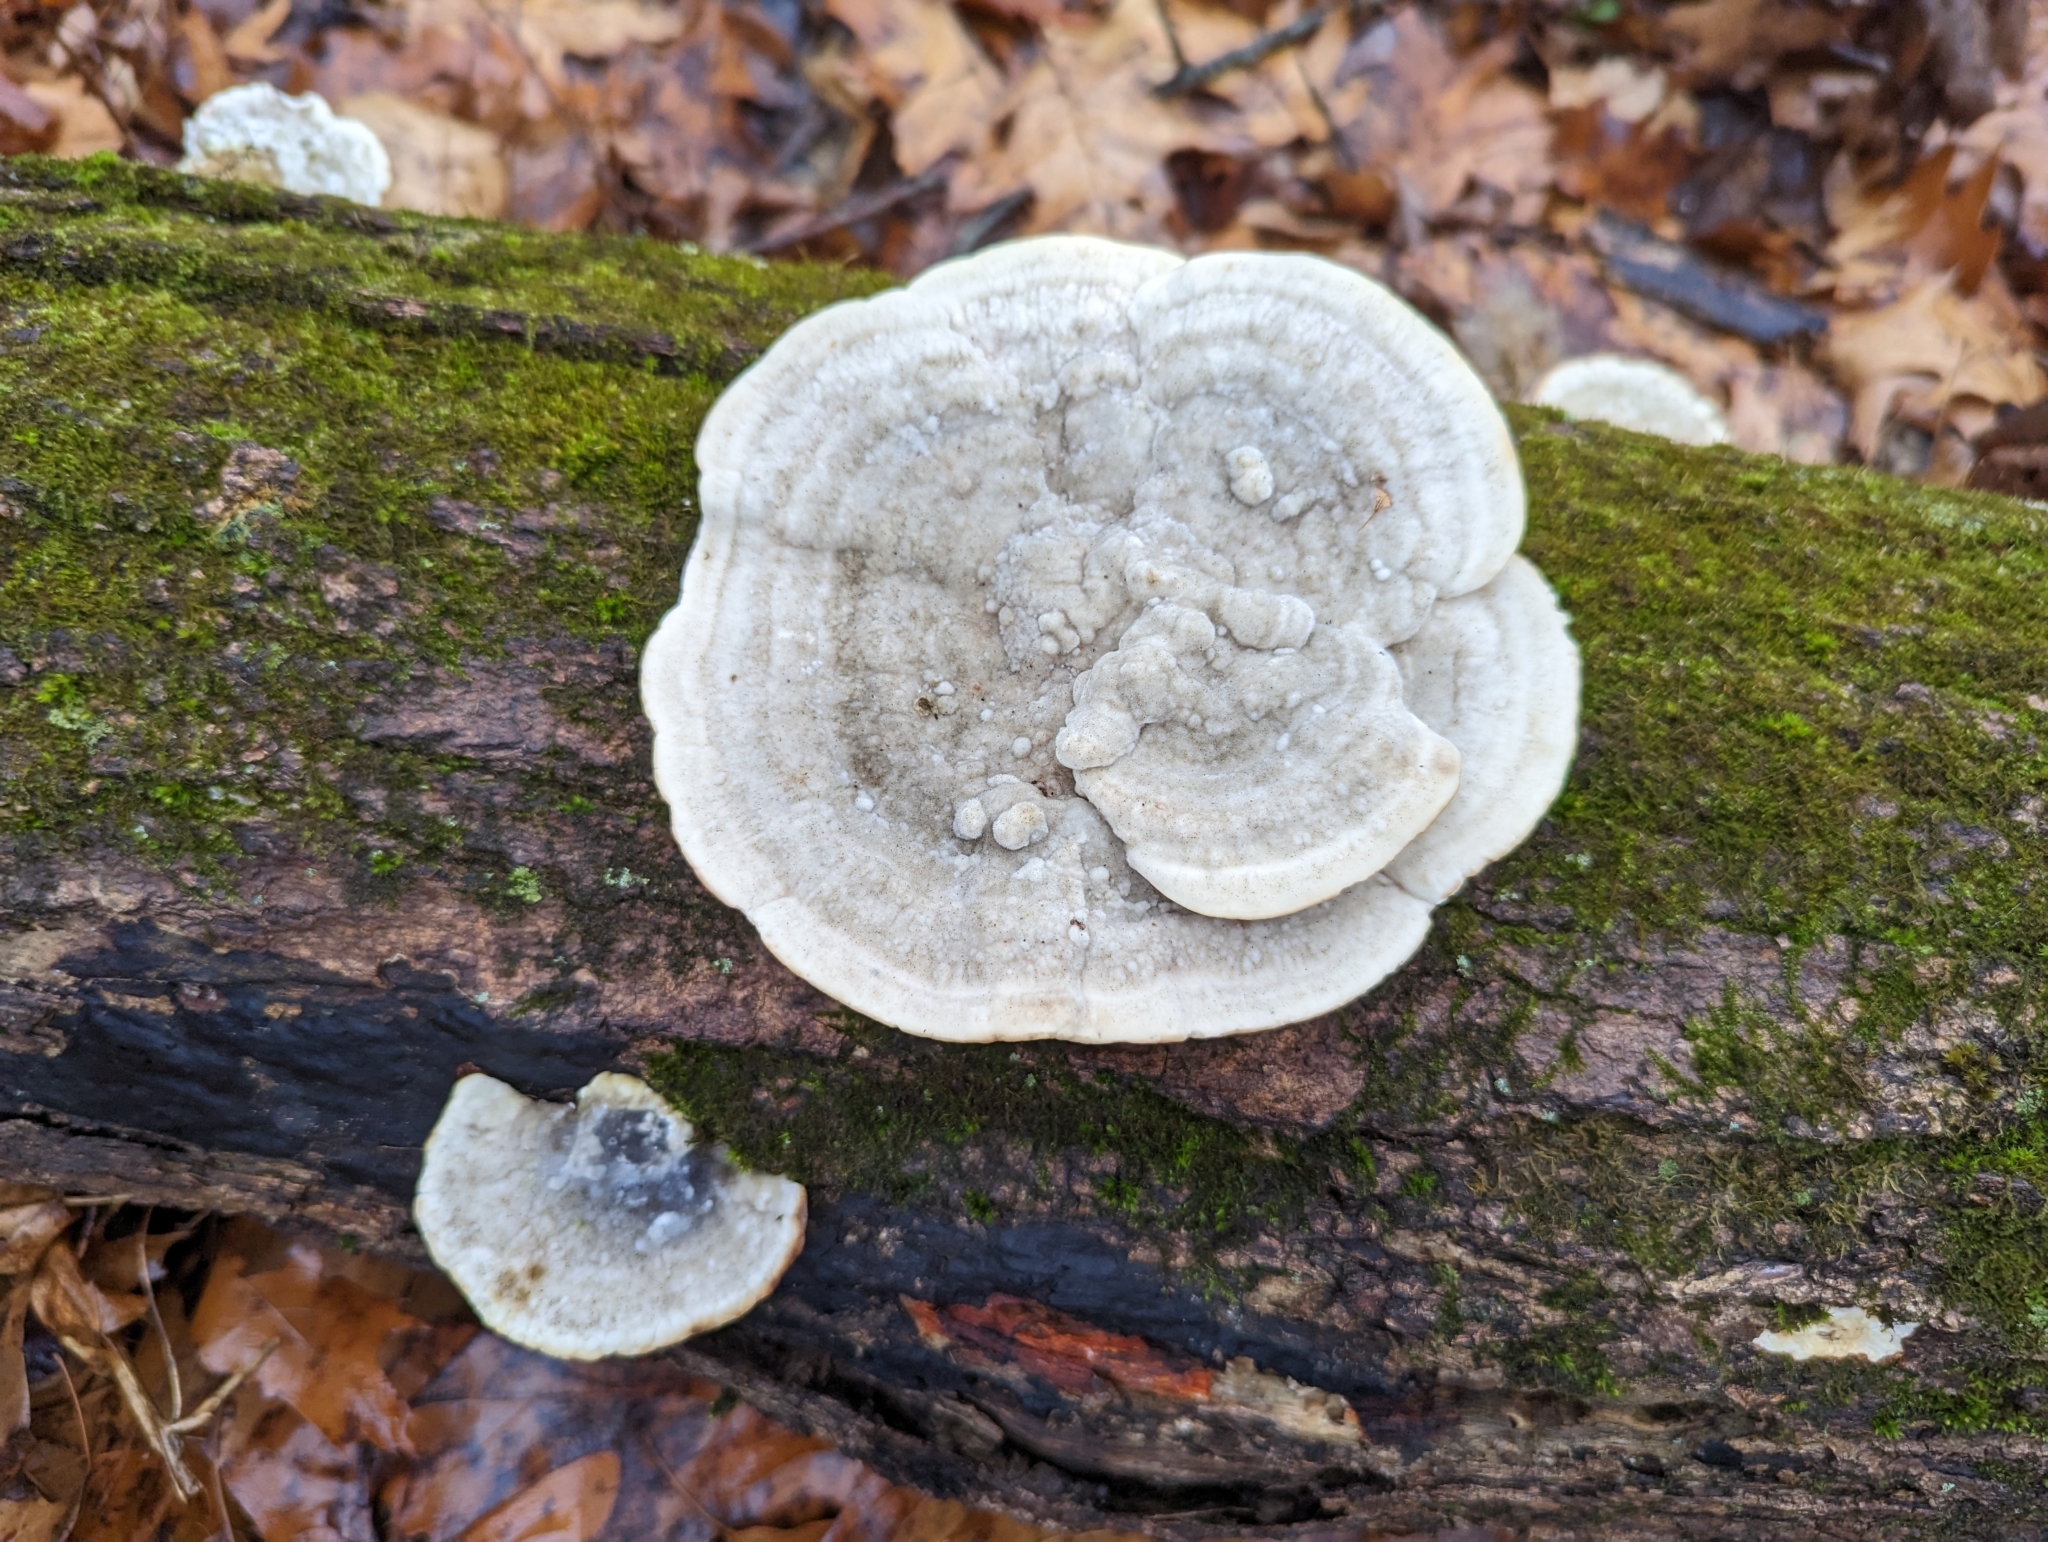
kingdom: Fungi
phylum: Basidiomycota
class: Agaricomycetes
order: Polyporales
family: Polyporaceae
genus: Trametes
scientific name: Trametes gibbosa
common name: Lumpy bracket
